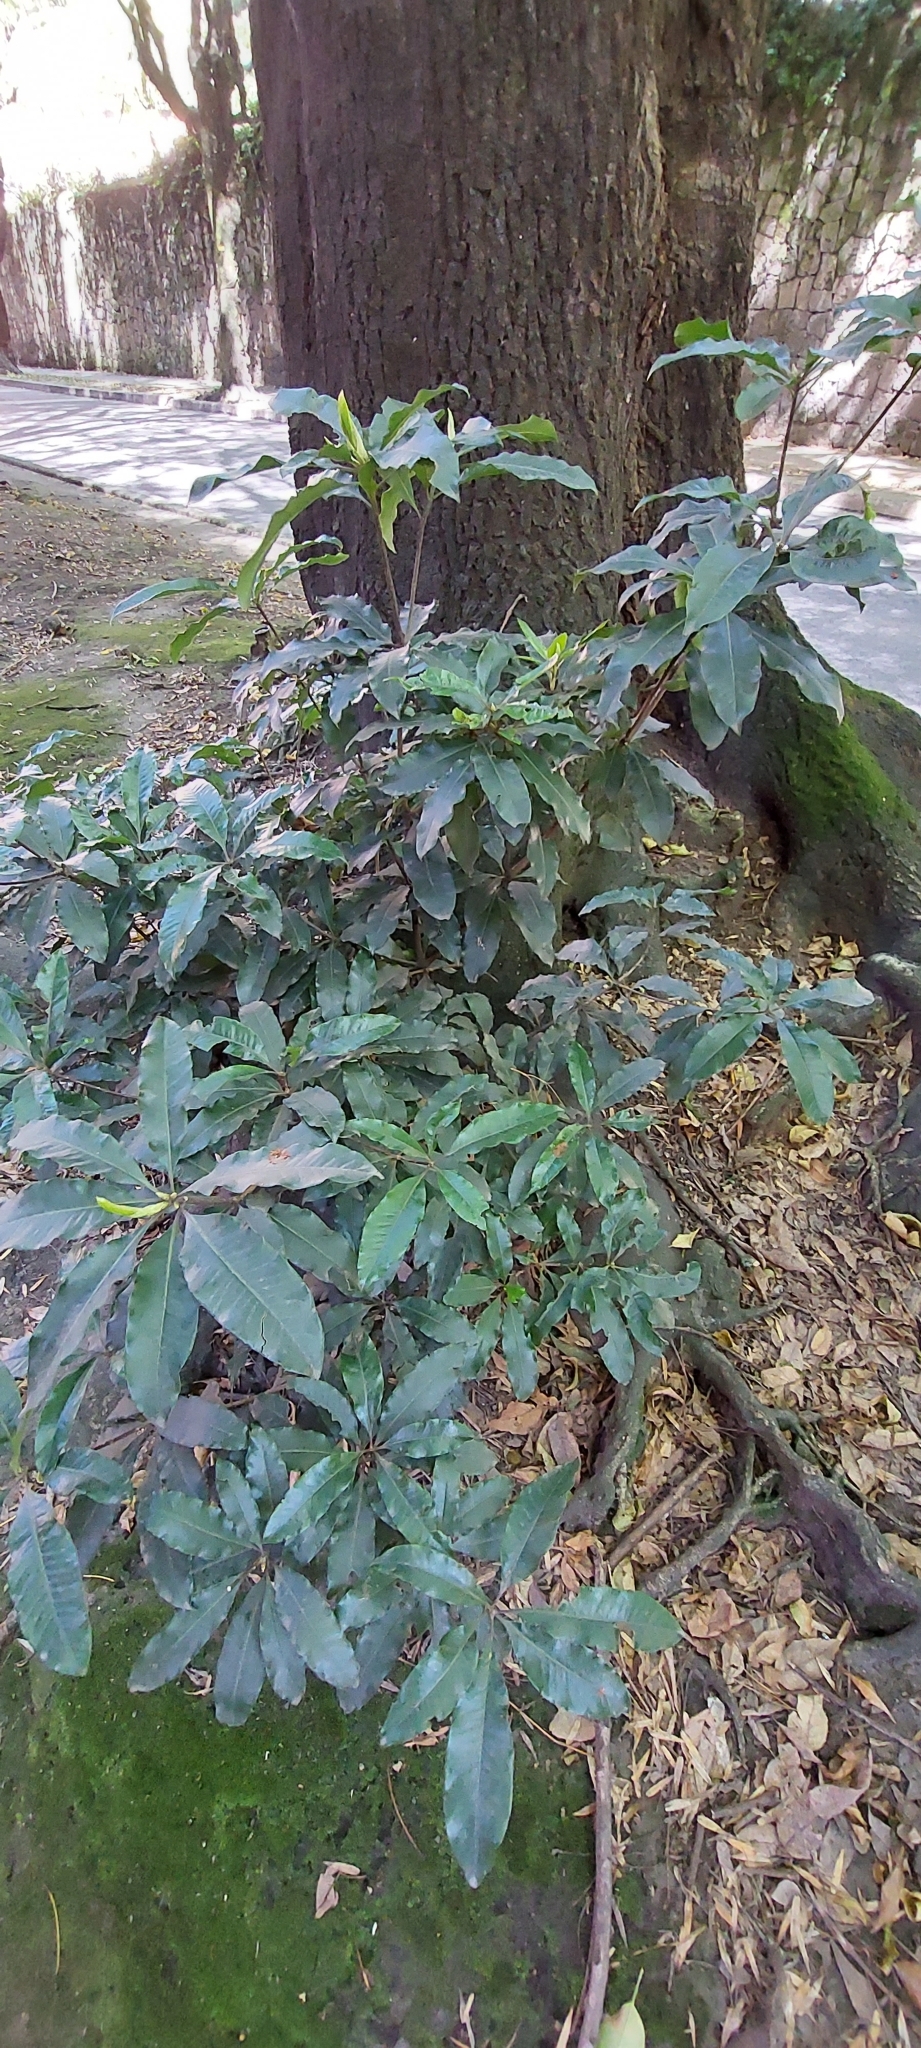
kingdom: Plantae
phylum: Tracheophyta
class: Magnoliopsida
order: Apiales
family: Pittosporaceae
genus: Pittosporum
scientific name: Pittosporum undulatum
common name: Australian cheesewood
